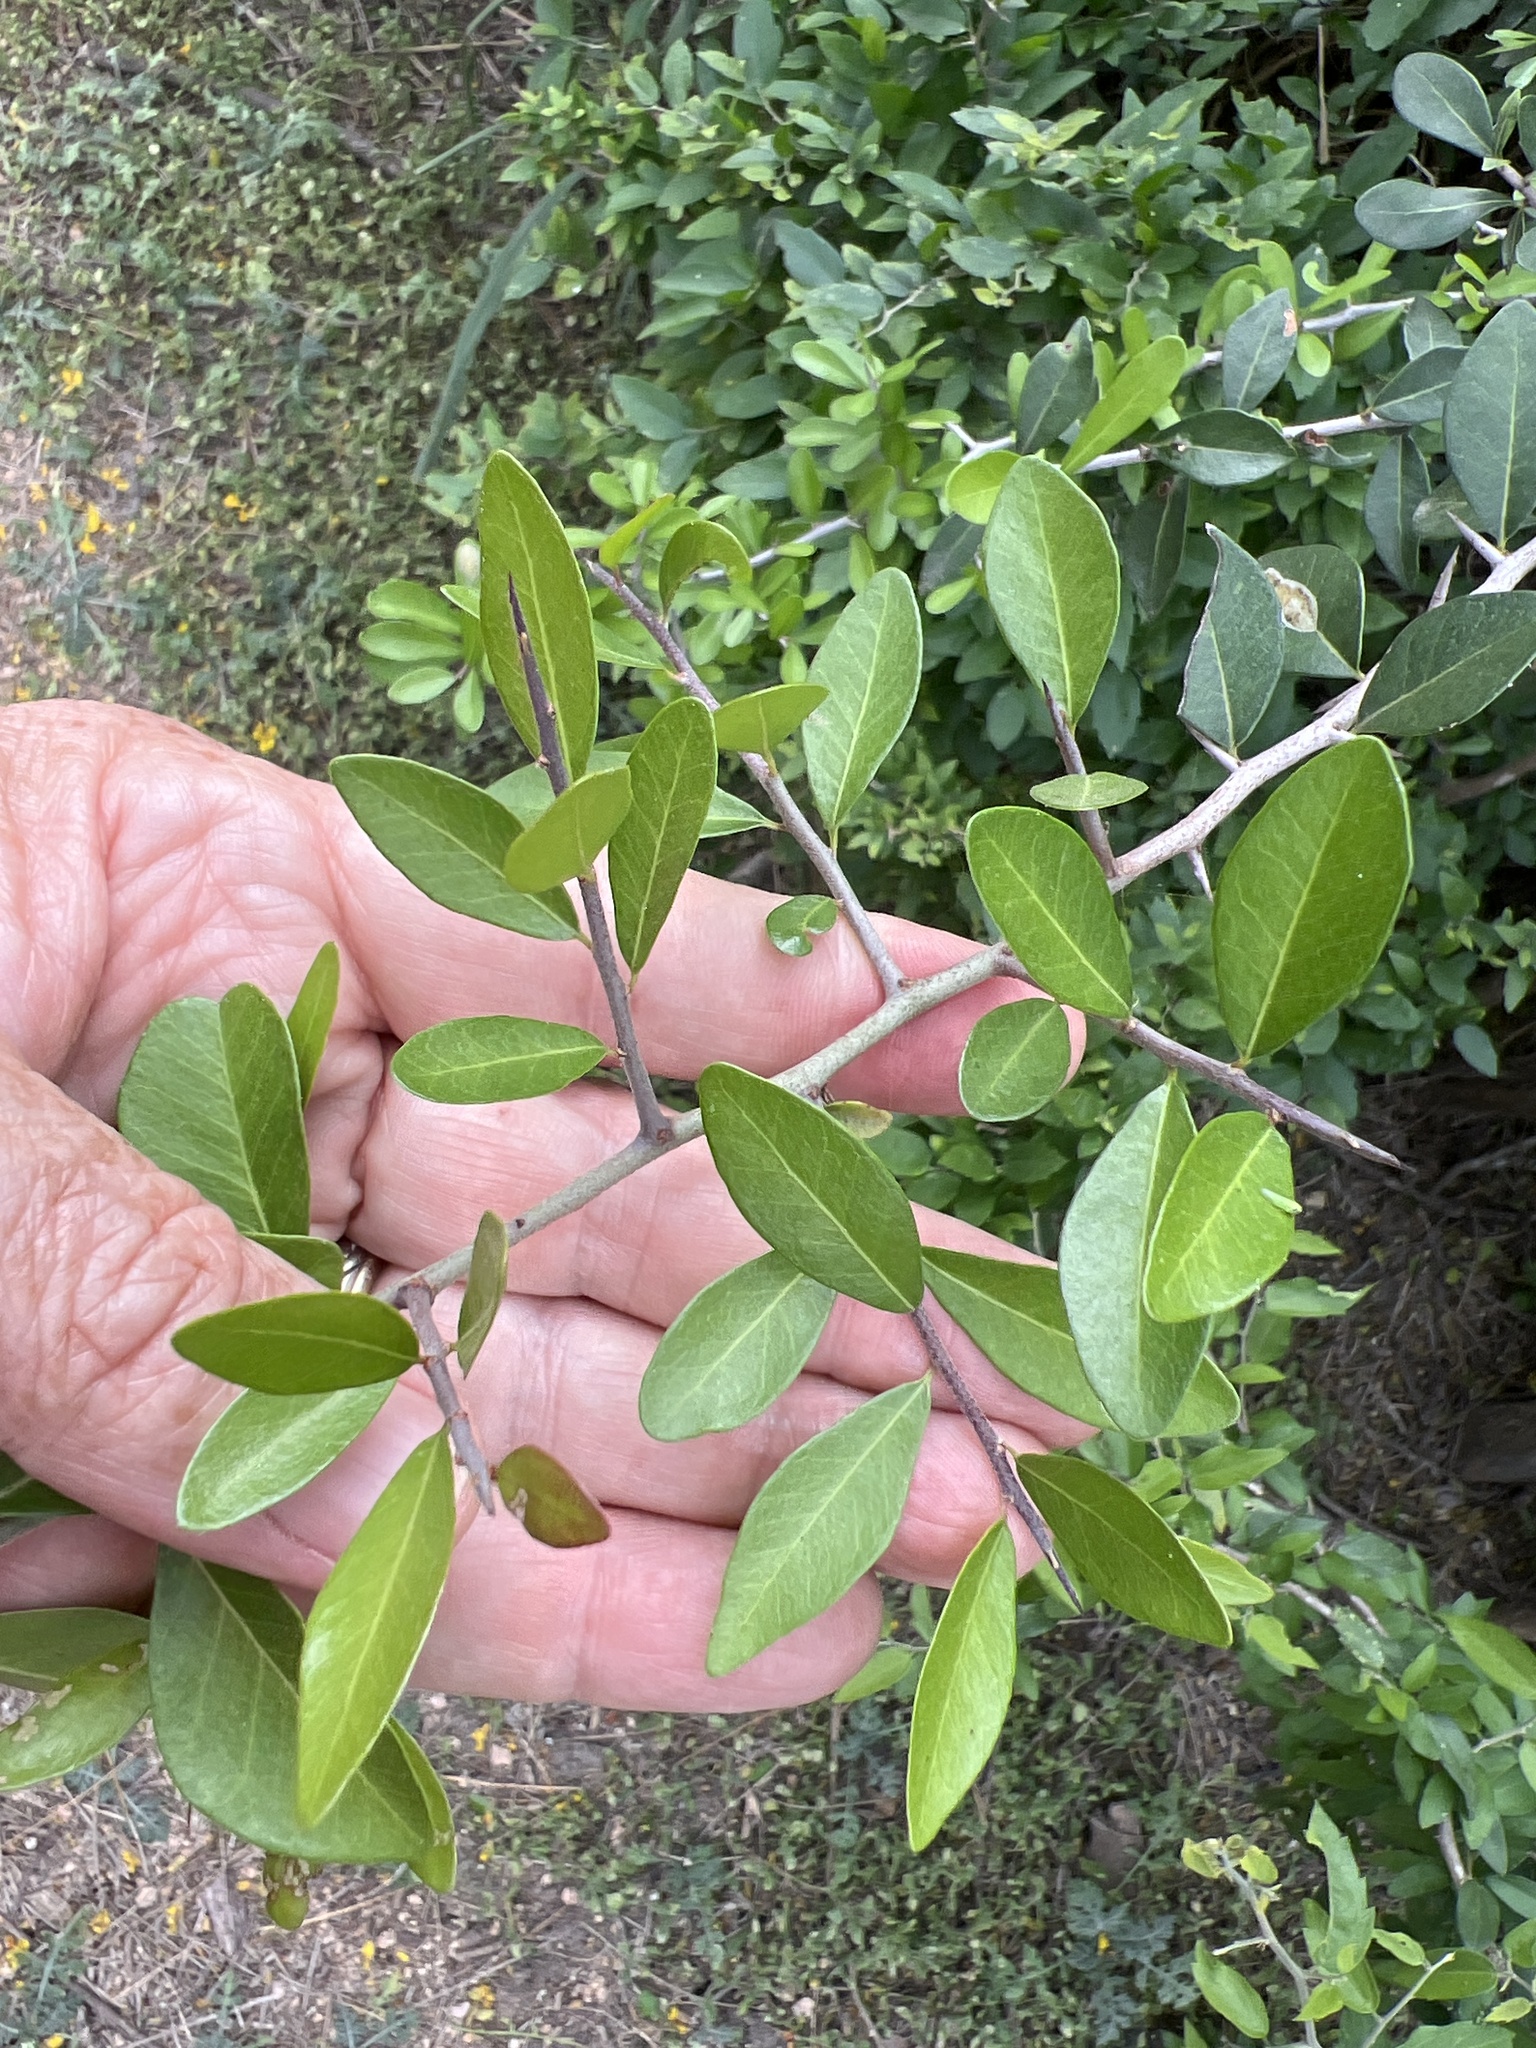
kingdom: Plantae
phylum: Tracheophyta
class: Magnoliopsida
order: Ericales
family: Sapotaceae
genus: Sideroxylon
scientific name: Sideroxylon celastrinum
